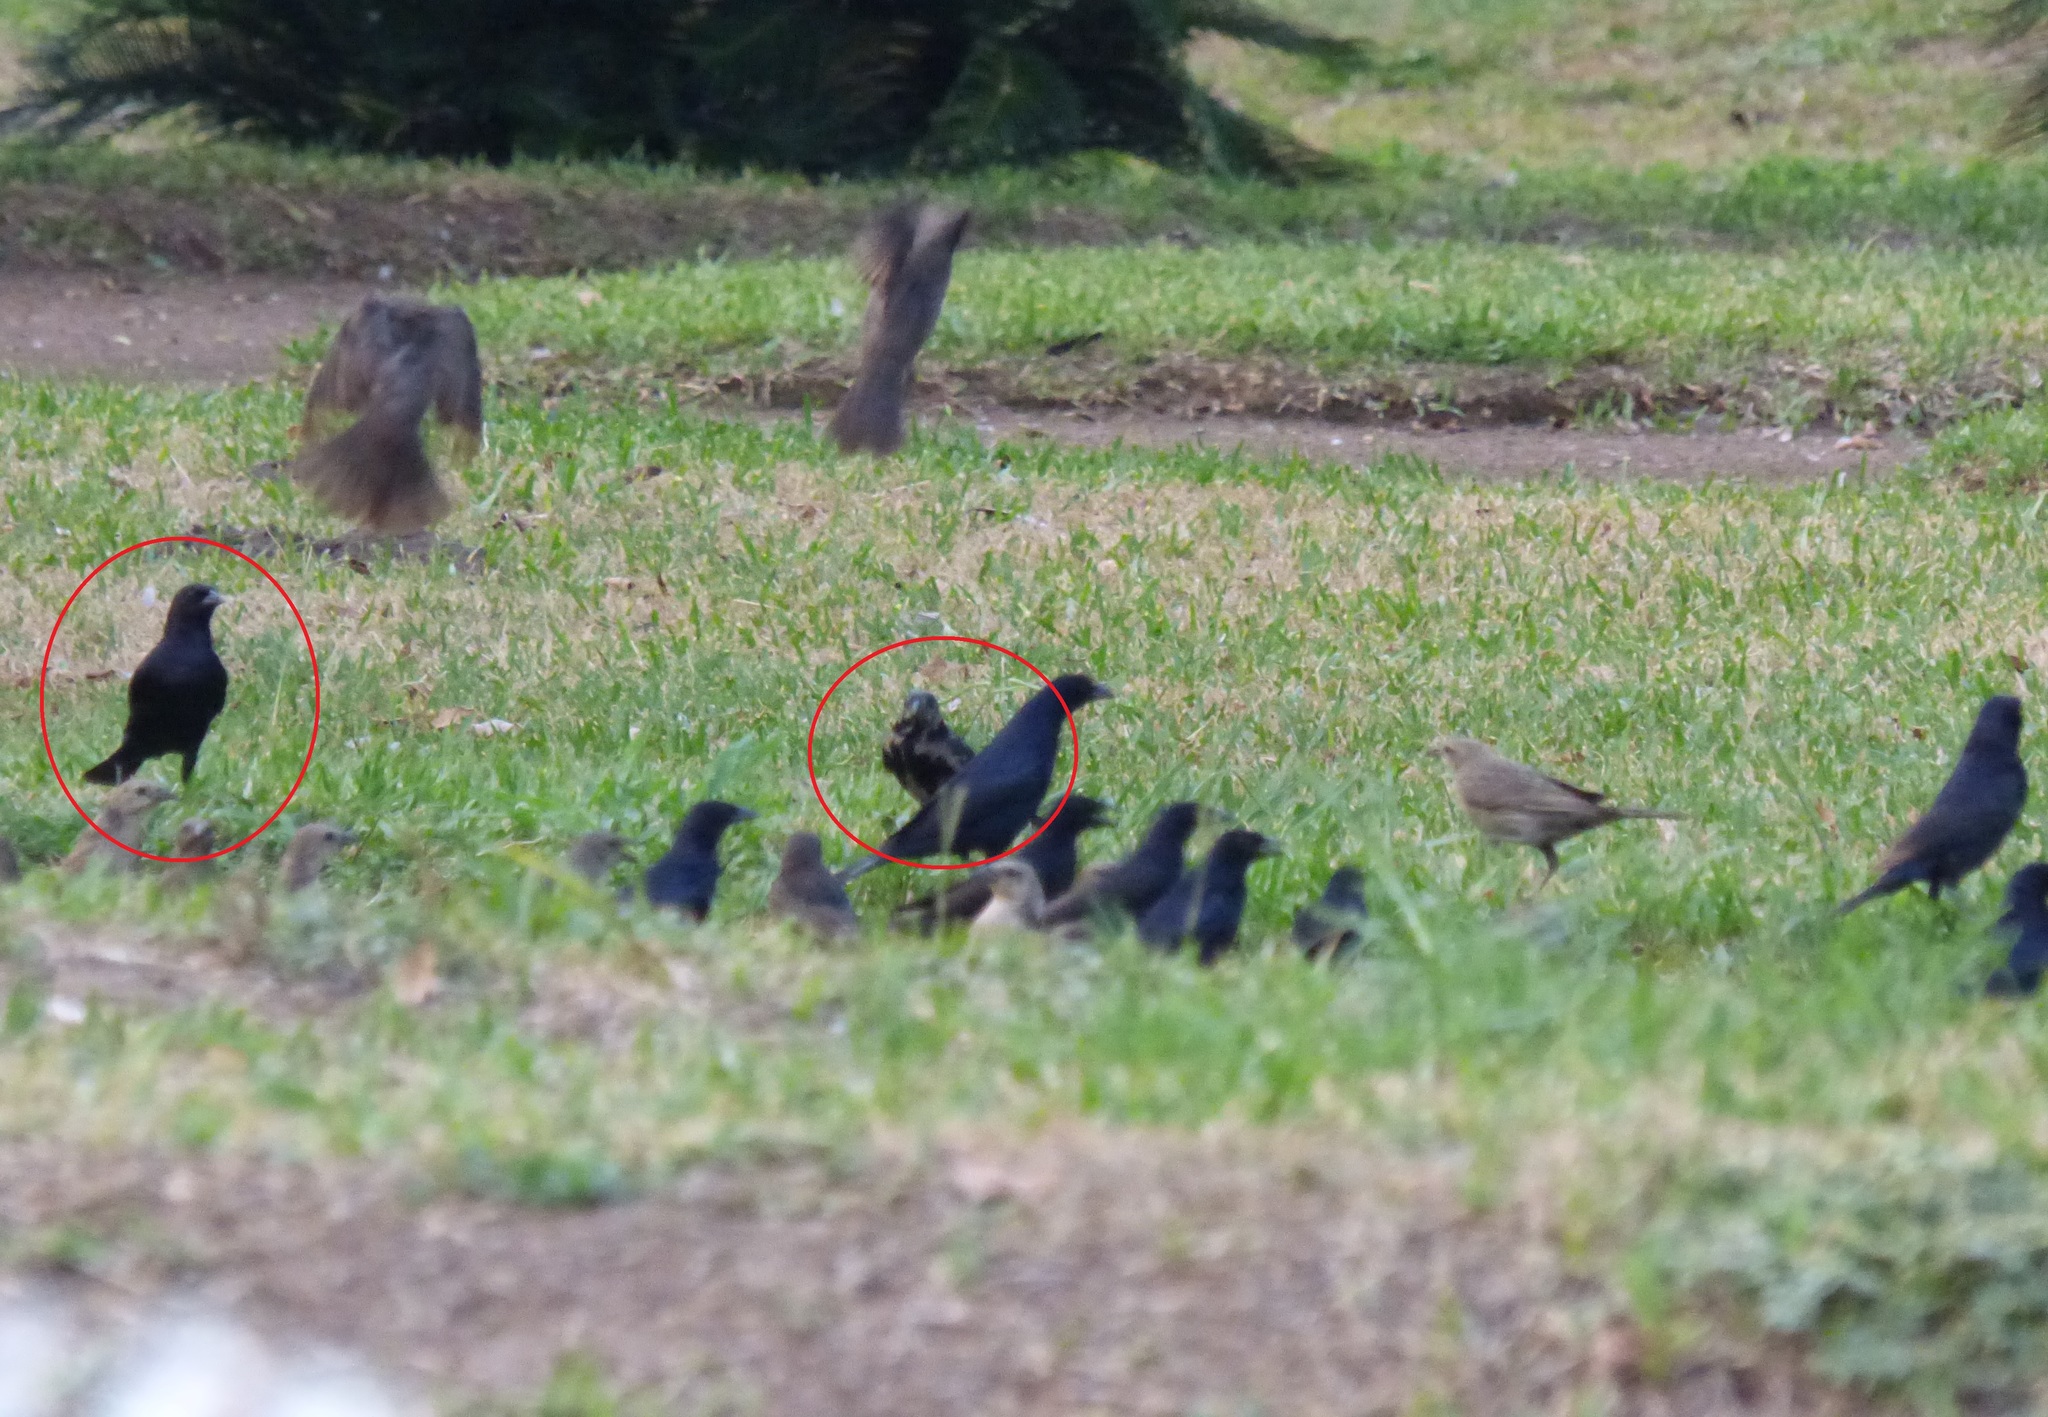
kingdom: Animalia
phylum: Chordata
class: Aves
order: Passeriformes
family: Icteridae
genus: Molothrus
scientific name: Molothrus rufoaxillaris
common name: Screaming cowbird
